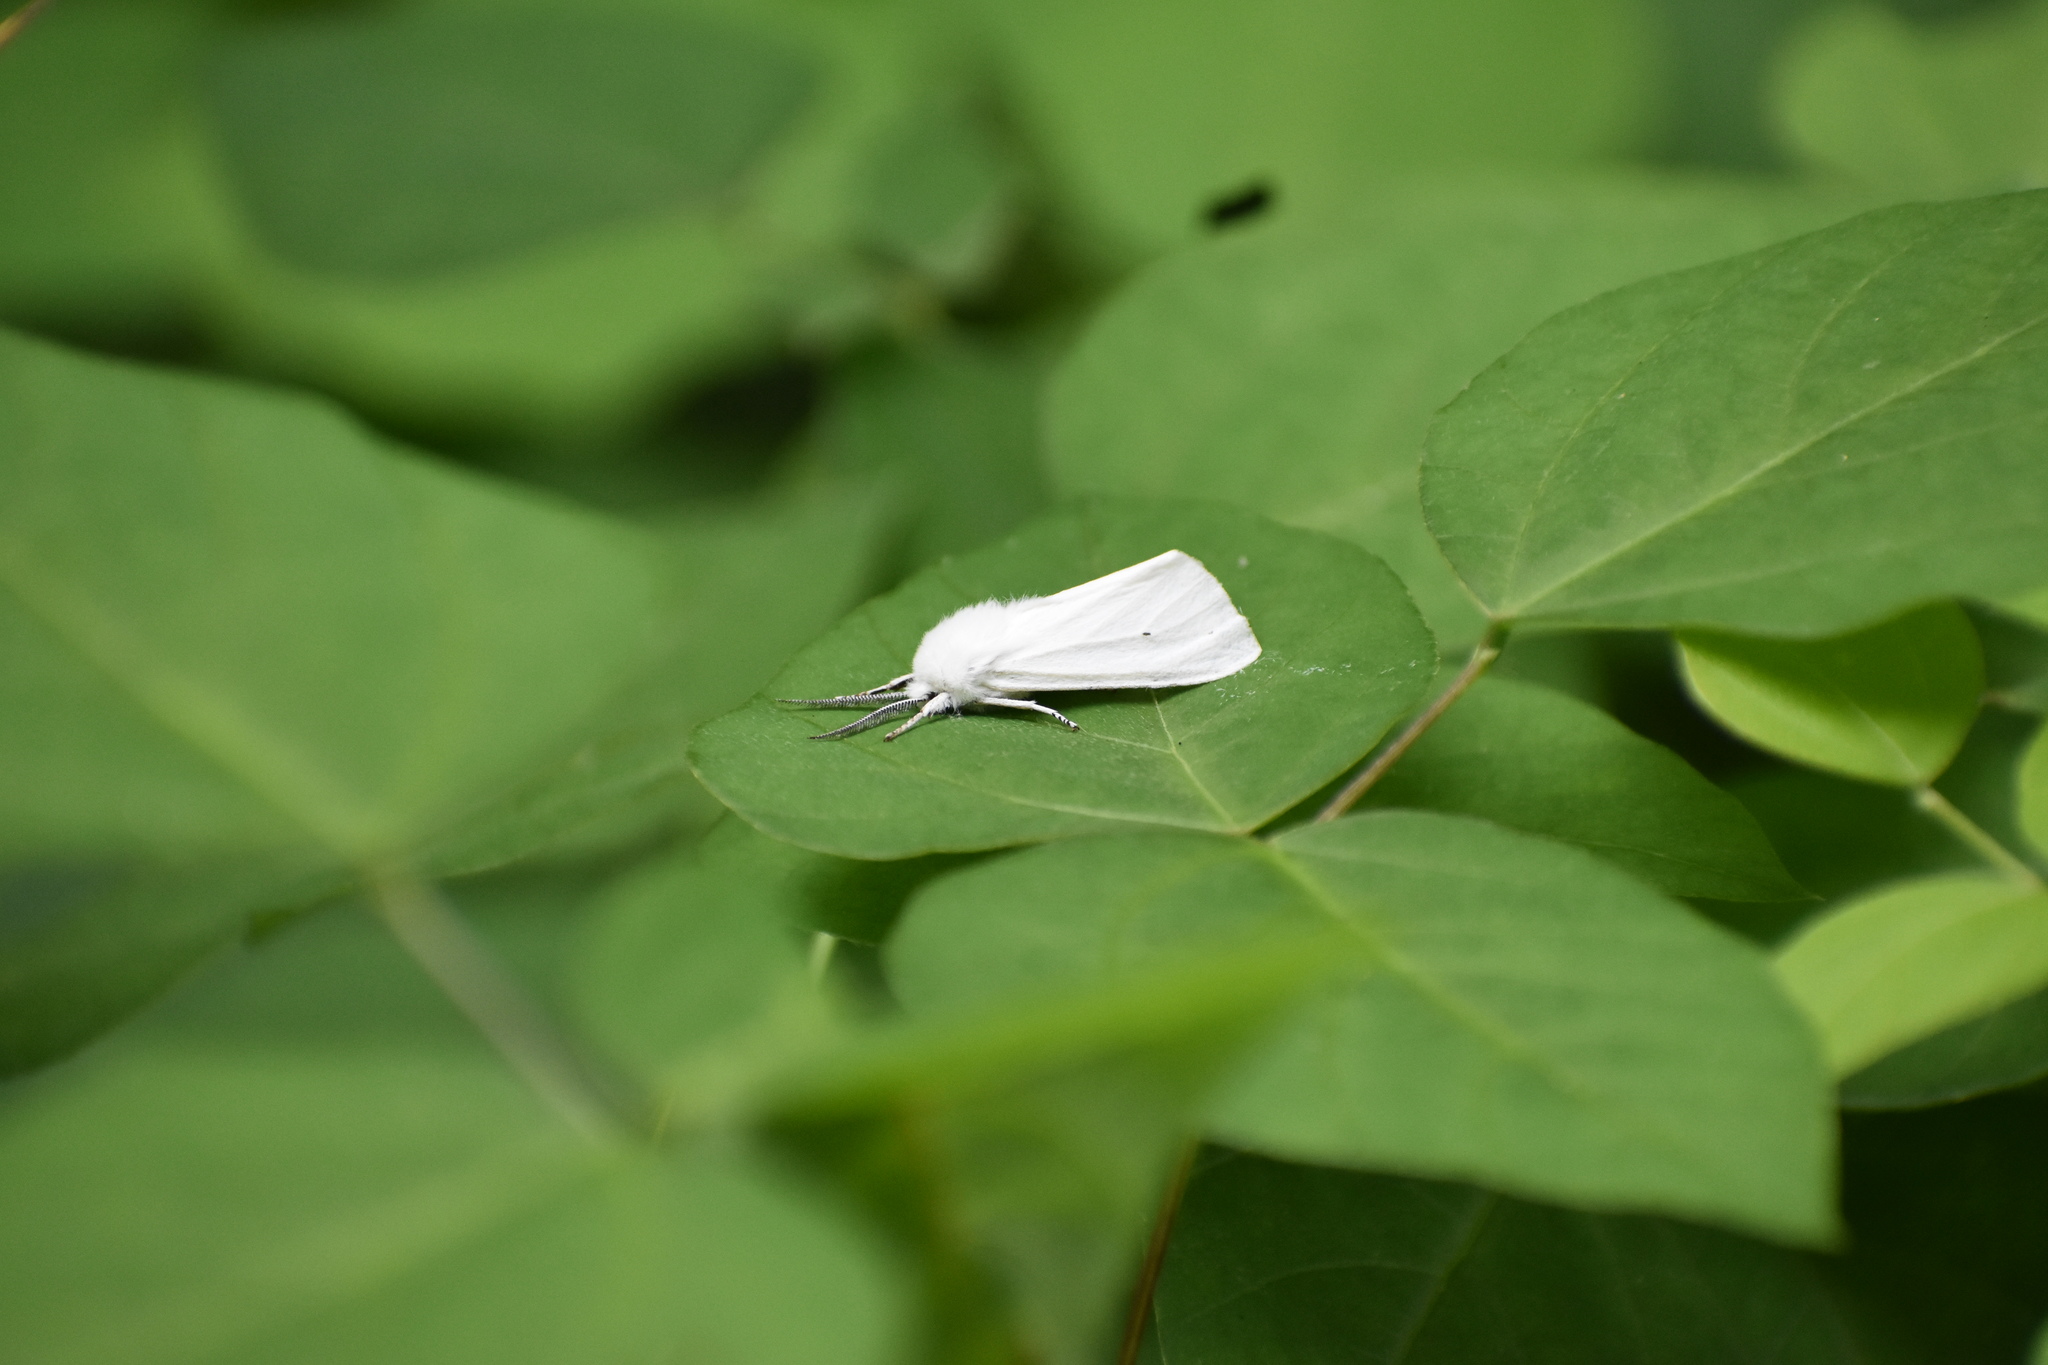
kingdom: Animalia
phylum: Arthropoda
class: Insecta
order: Lepidoptera
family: Erebidae
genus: Spilosoma
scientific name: Spilosoma virginica
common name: Virginia tiger moth
